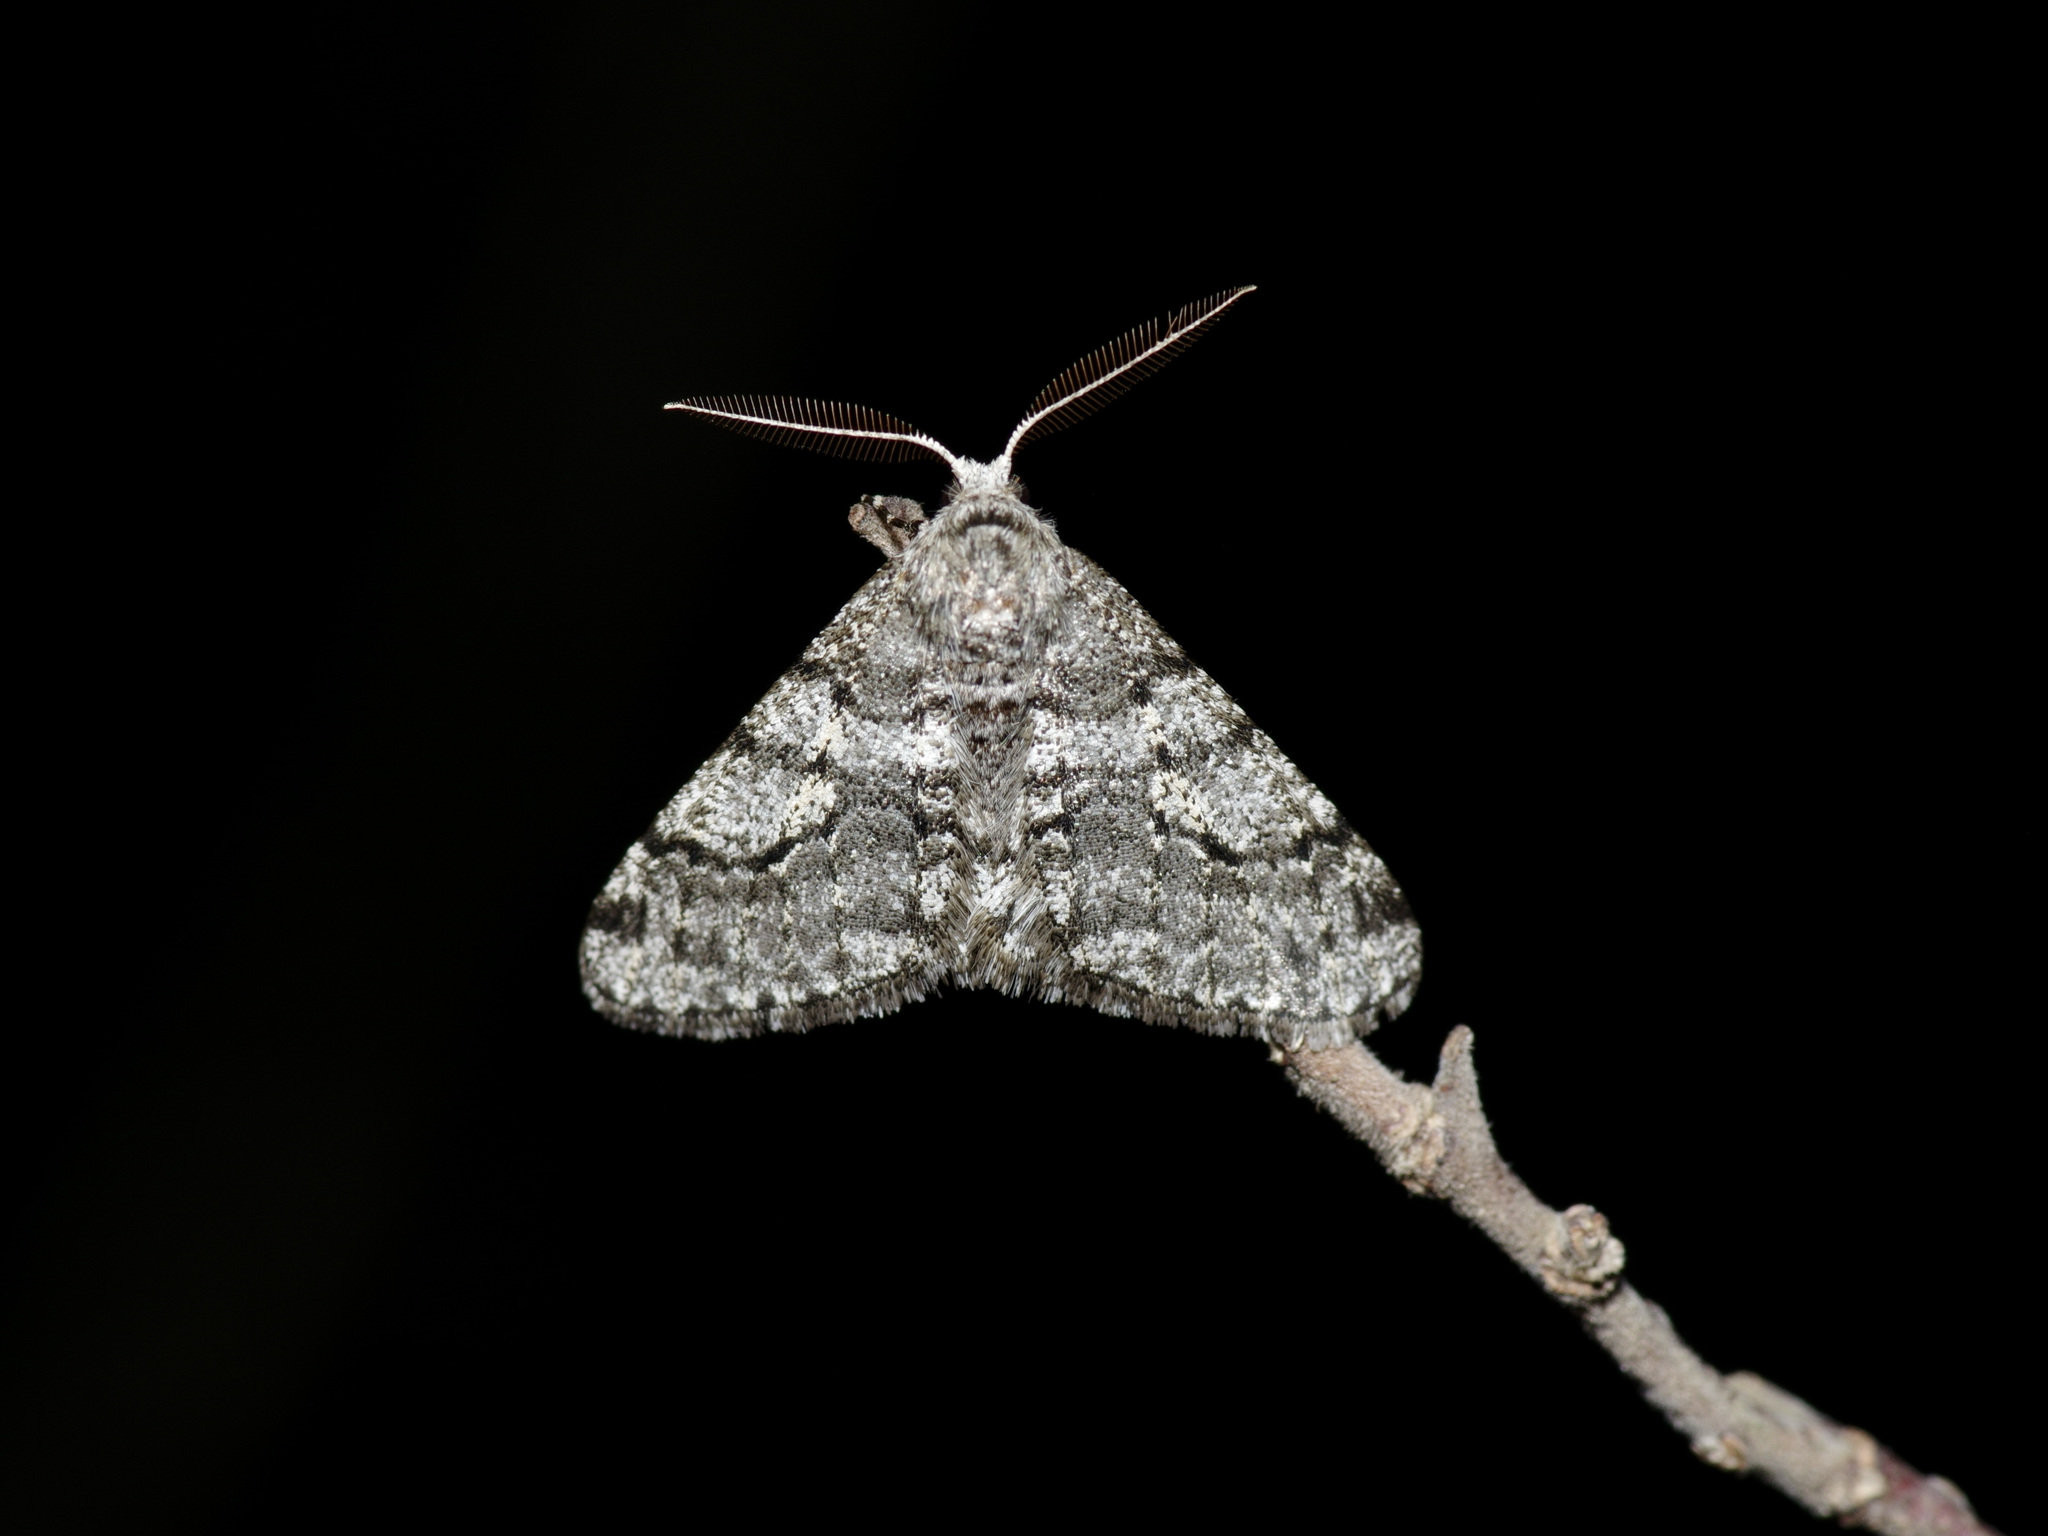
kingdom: Animalia
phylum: Arthropoda
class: Insecta
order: Lepidoptera
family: Geometridae
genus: Phigalia
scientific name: Phigalia titea
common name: Spiny looper
